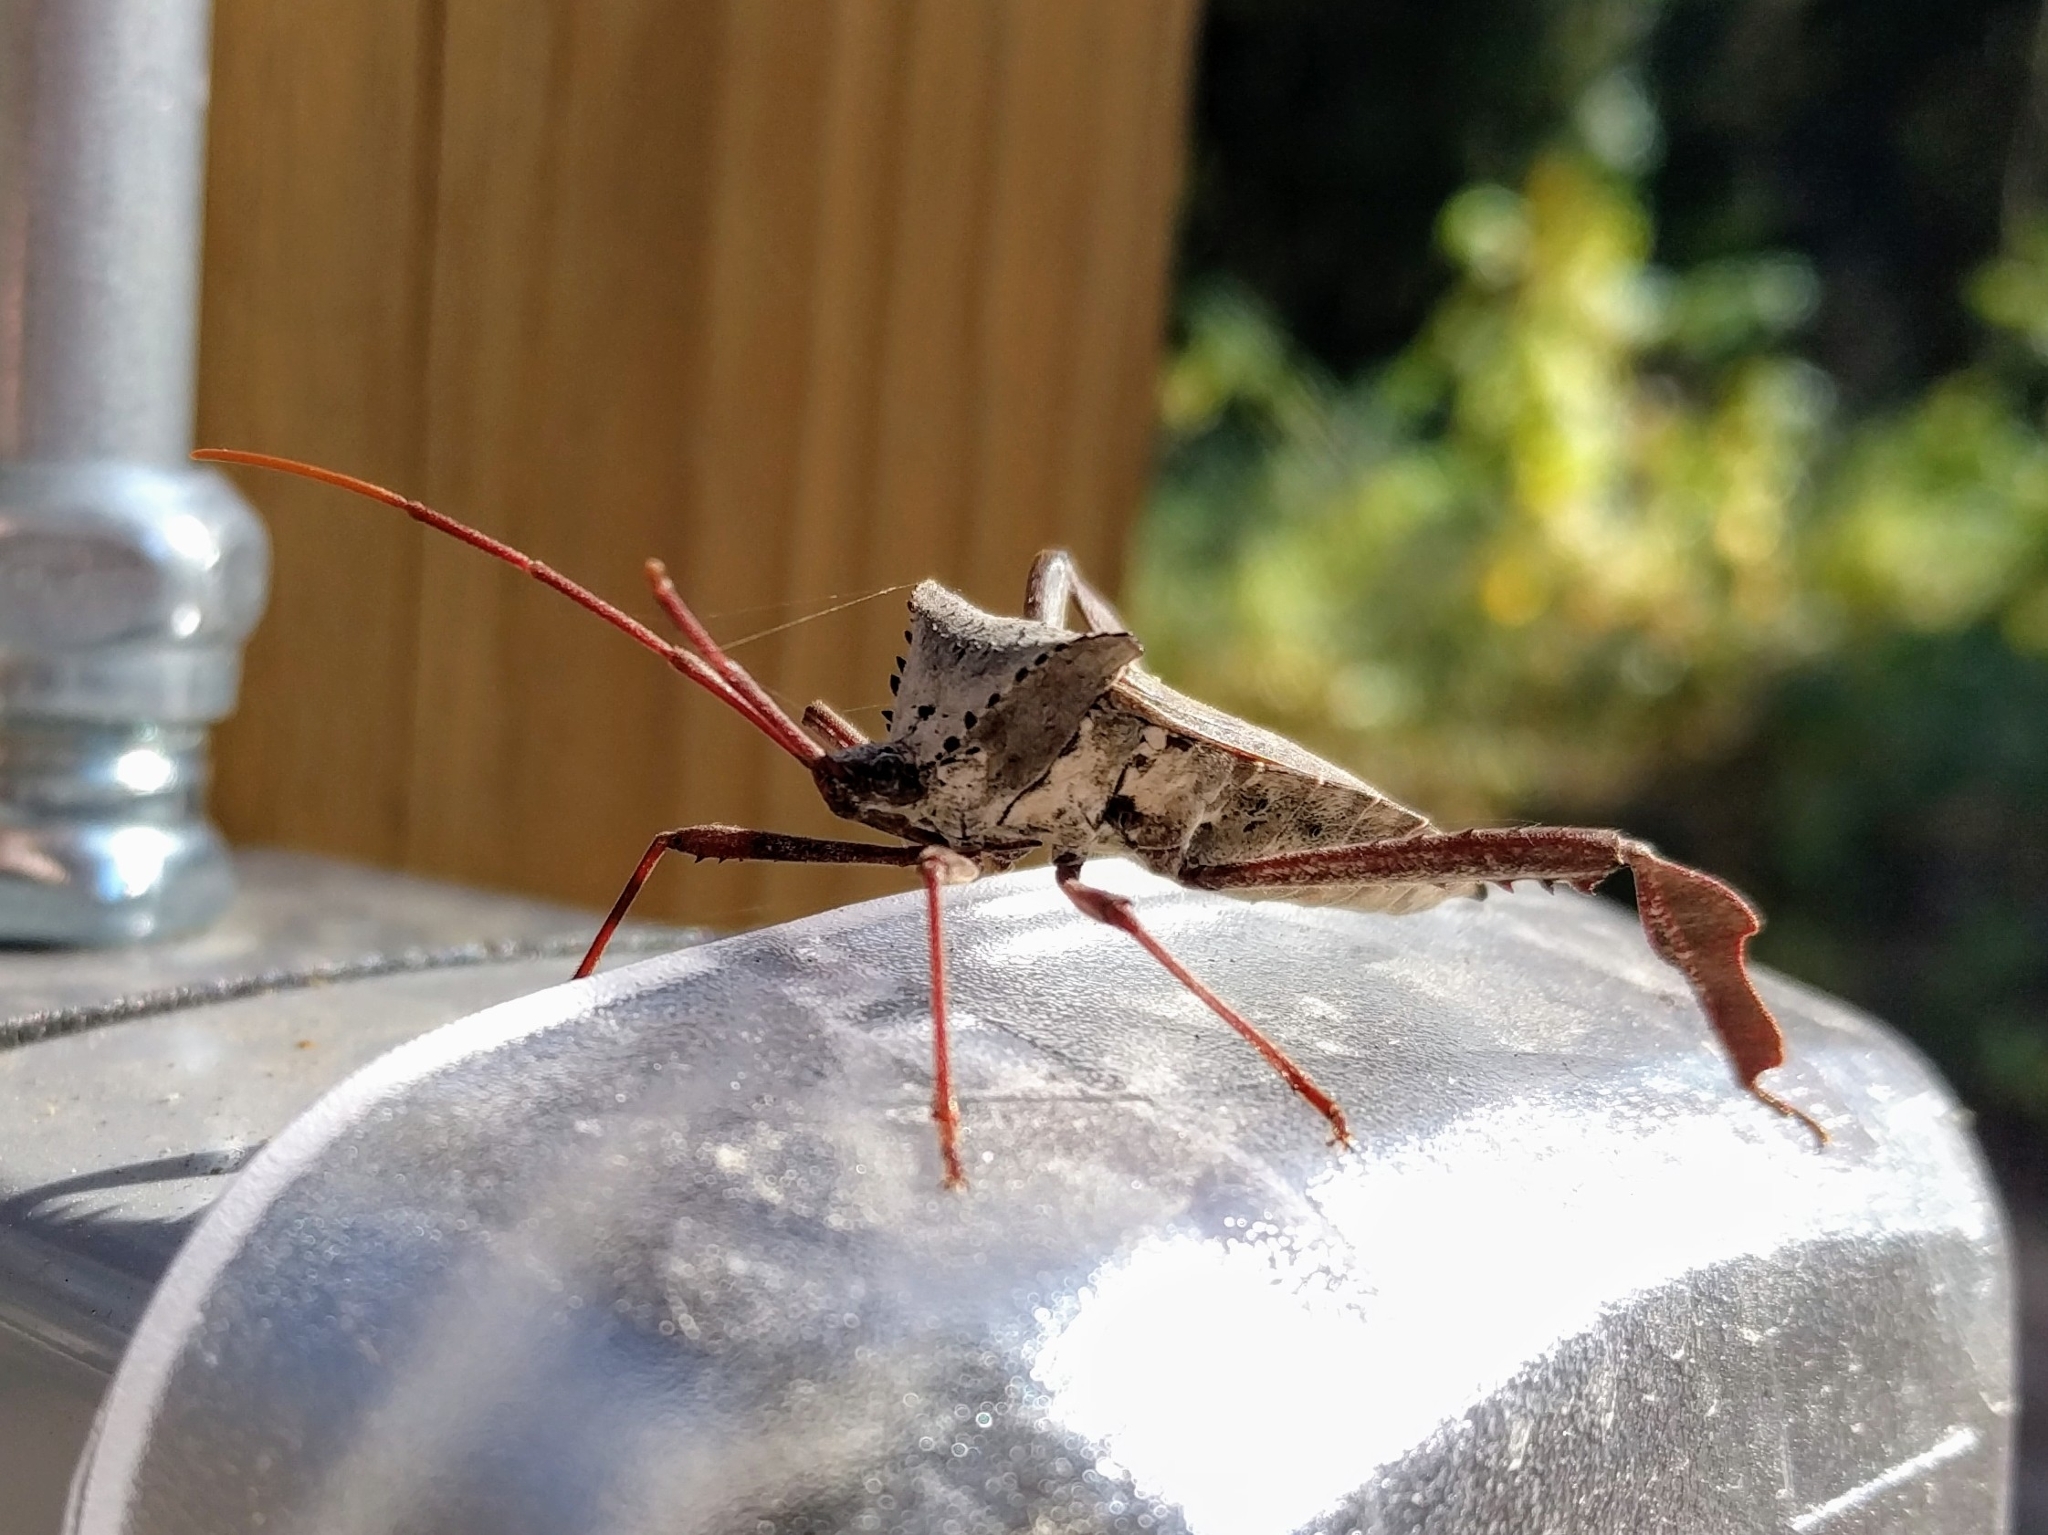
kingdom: Animalia
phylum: Arthropoda
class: Insecta
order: Hemiptera
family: Coreidae
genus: Acanthocephala
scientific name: Acanthocephala declivis
